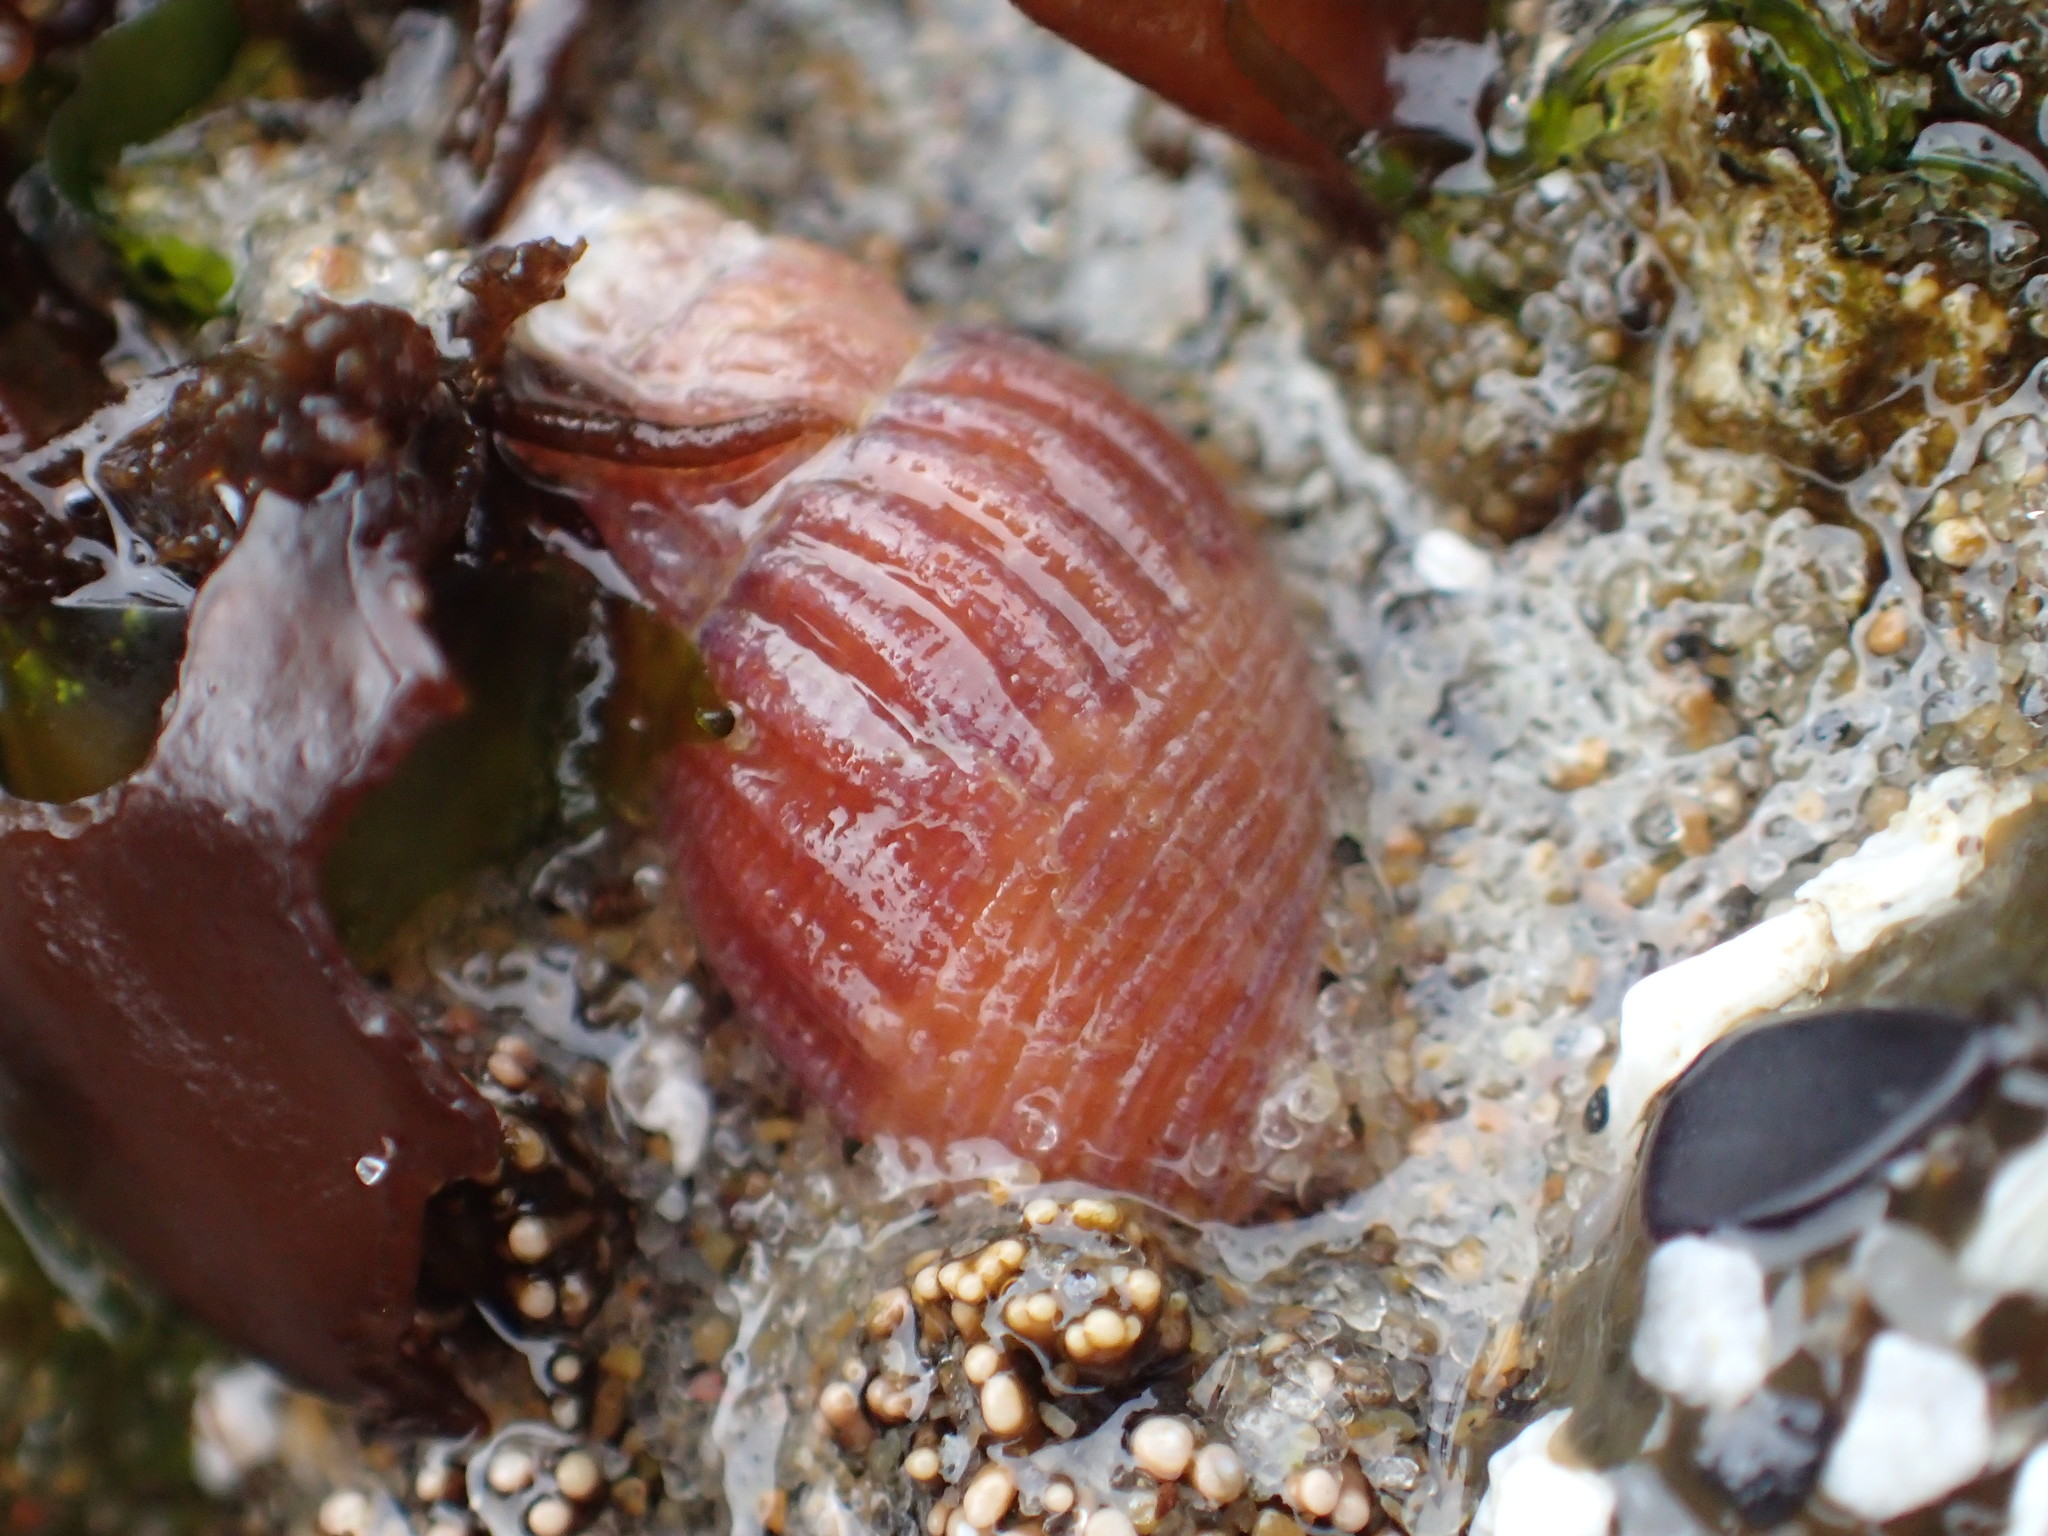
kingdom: Animalia
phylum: Mollusca
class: Gastropoda
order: Neogastropoda
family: Columbellidae
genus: Amphissa
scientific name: Amphissa columbiana
